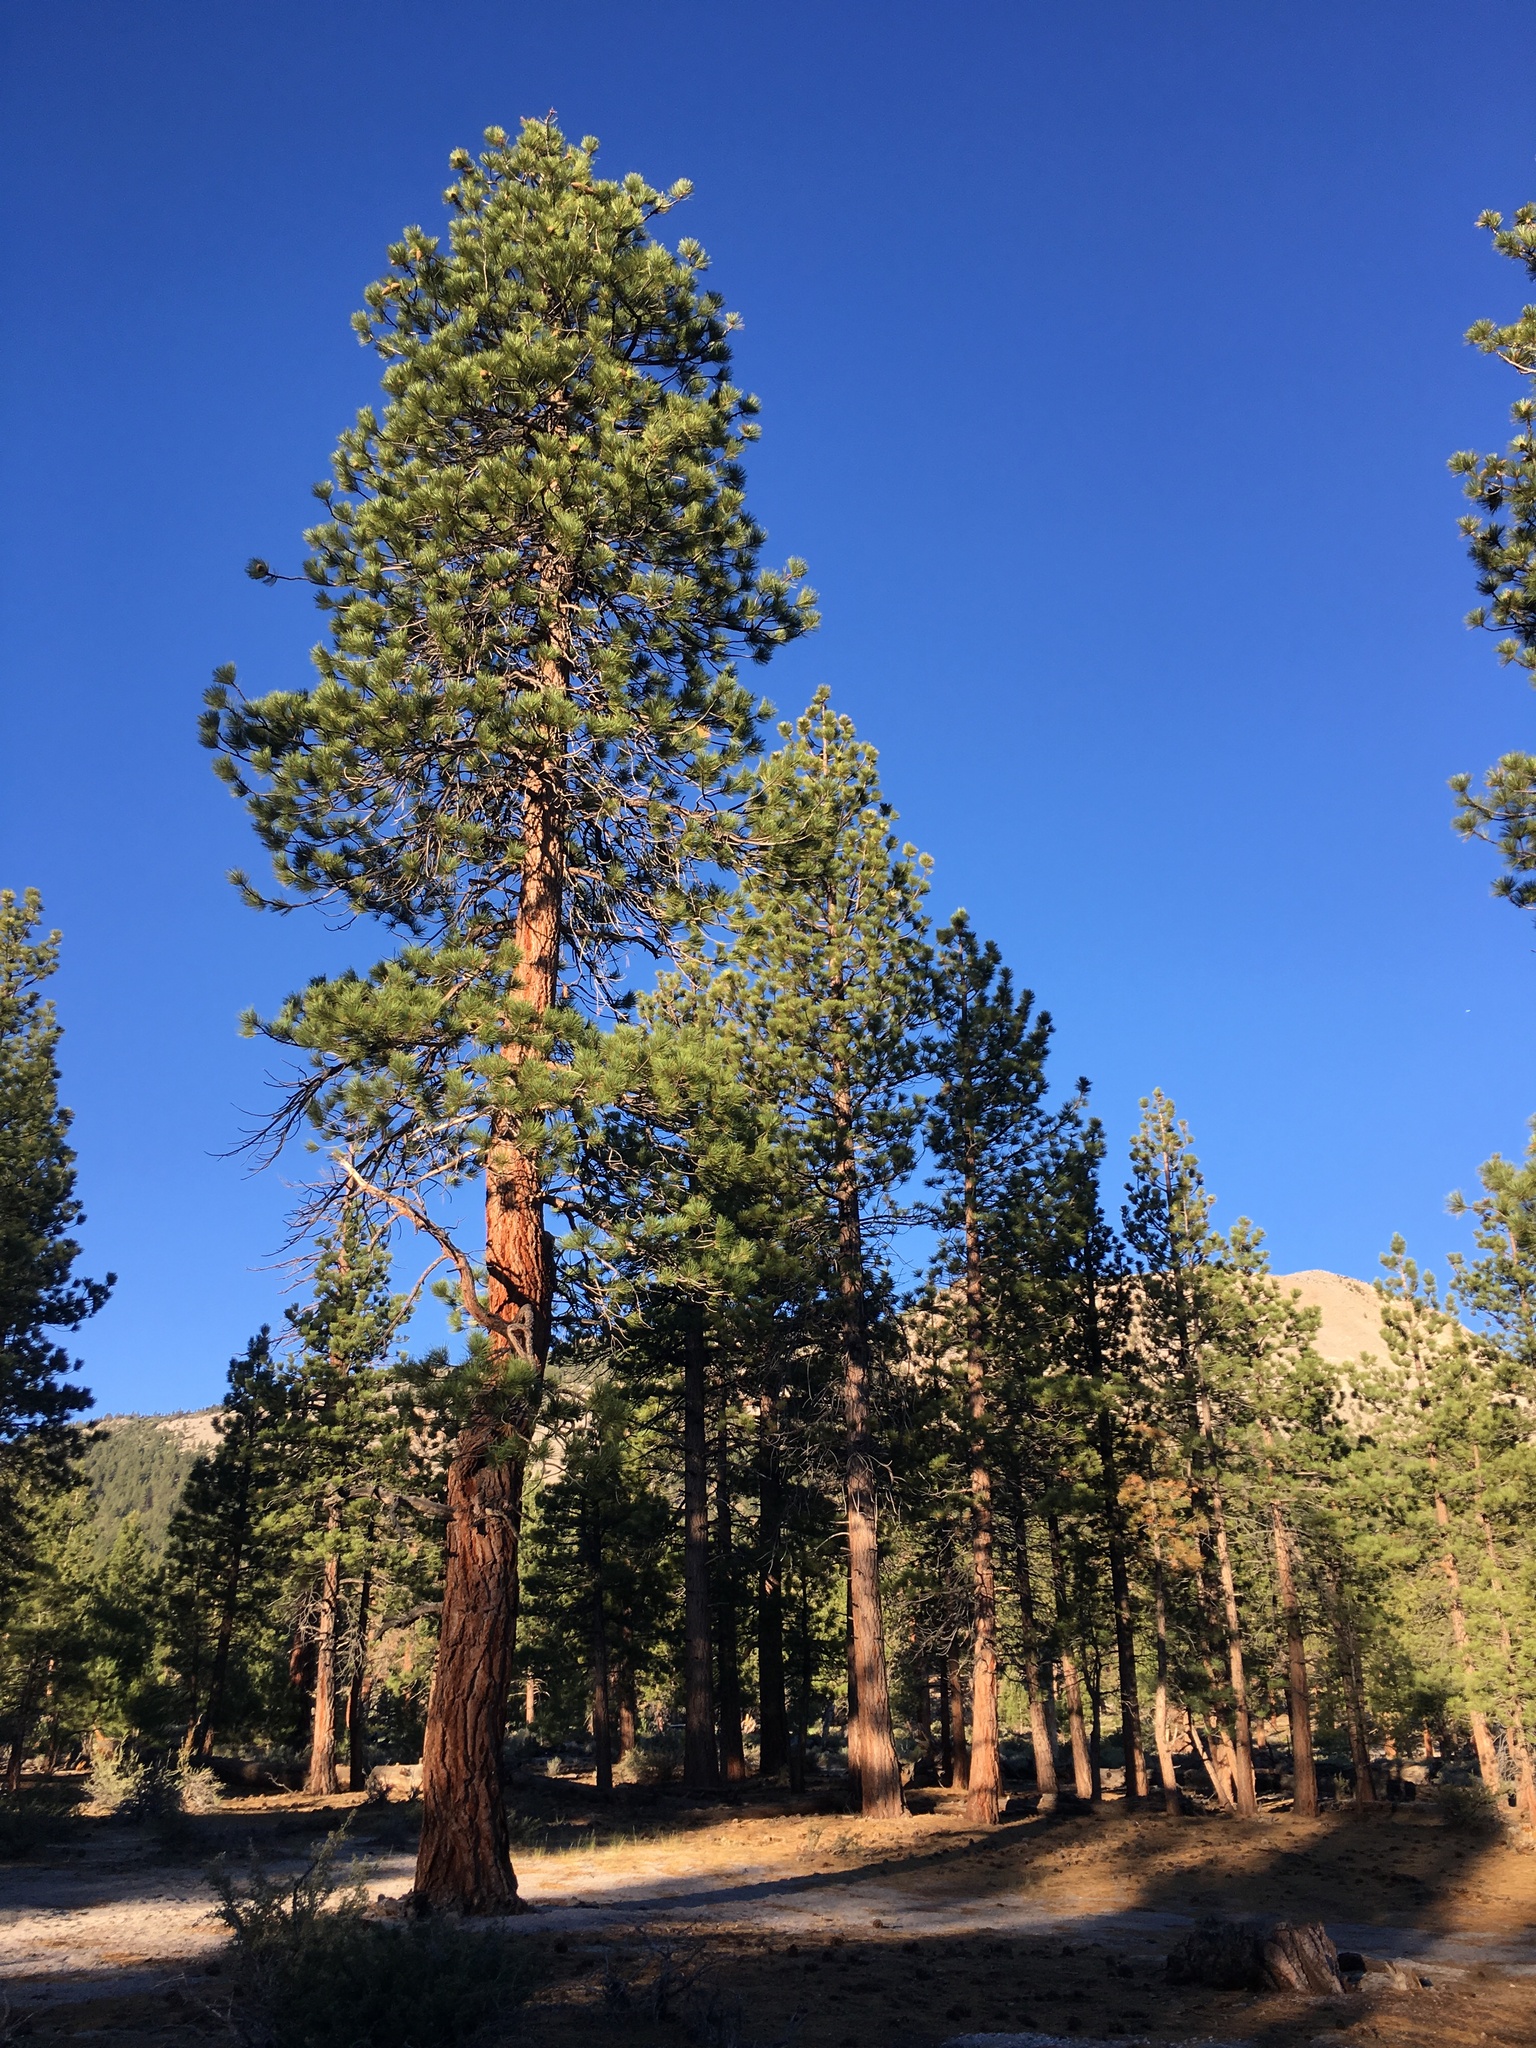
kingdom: Plantae
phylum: Tracheophyta
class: Pinopsida
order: Pinales
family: Pinaceae
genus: Pinus
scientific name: Pinus jeffreyi
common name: Jeffrey pine
